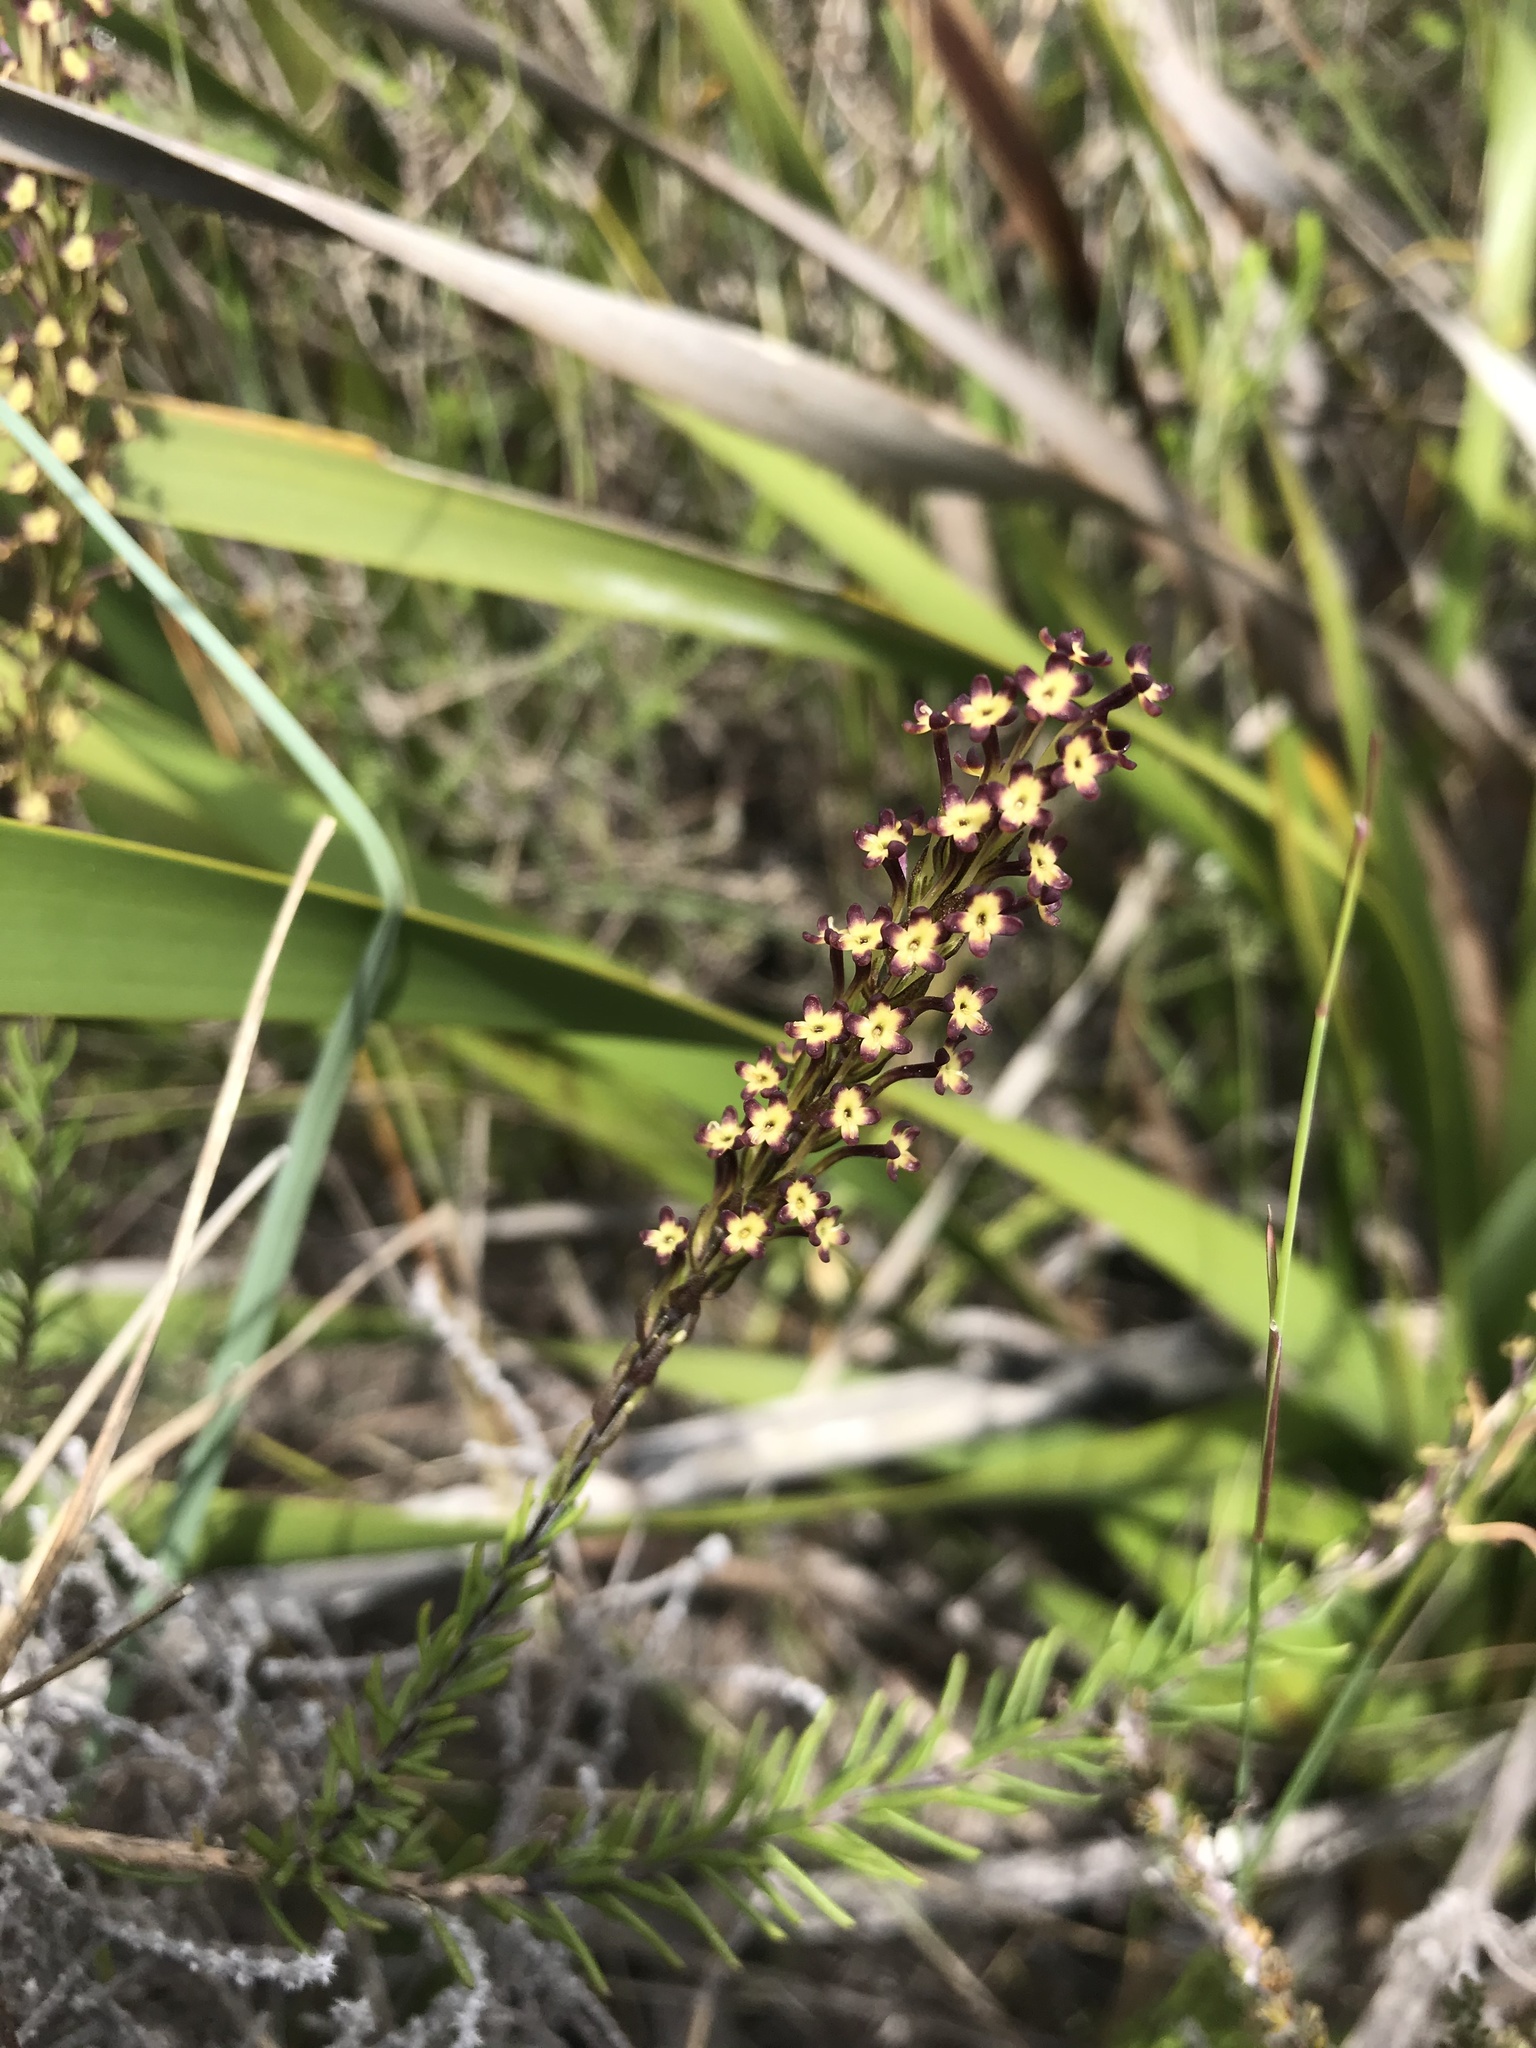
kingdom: Plantae
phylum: Tracheophyta
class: Magnoliopsida
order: Lamiales
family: Scrophulariaceae
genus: Microdon
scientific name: Microdon dubius
